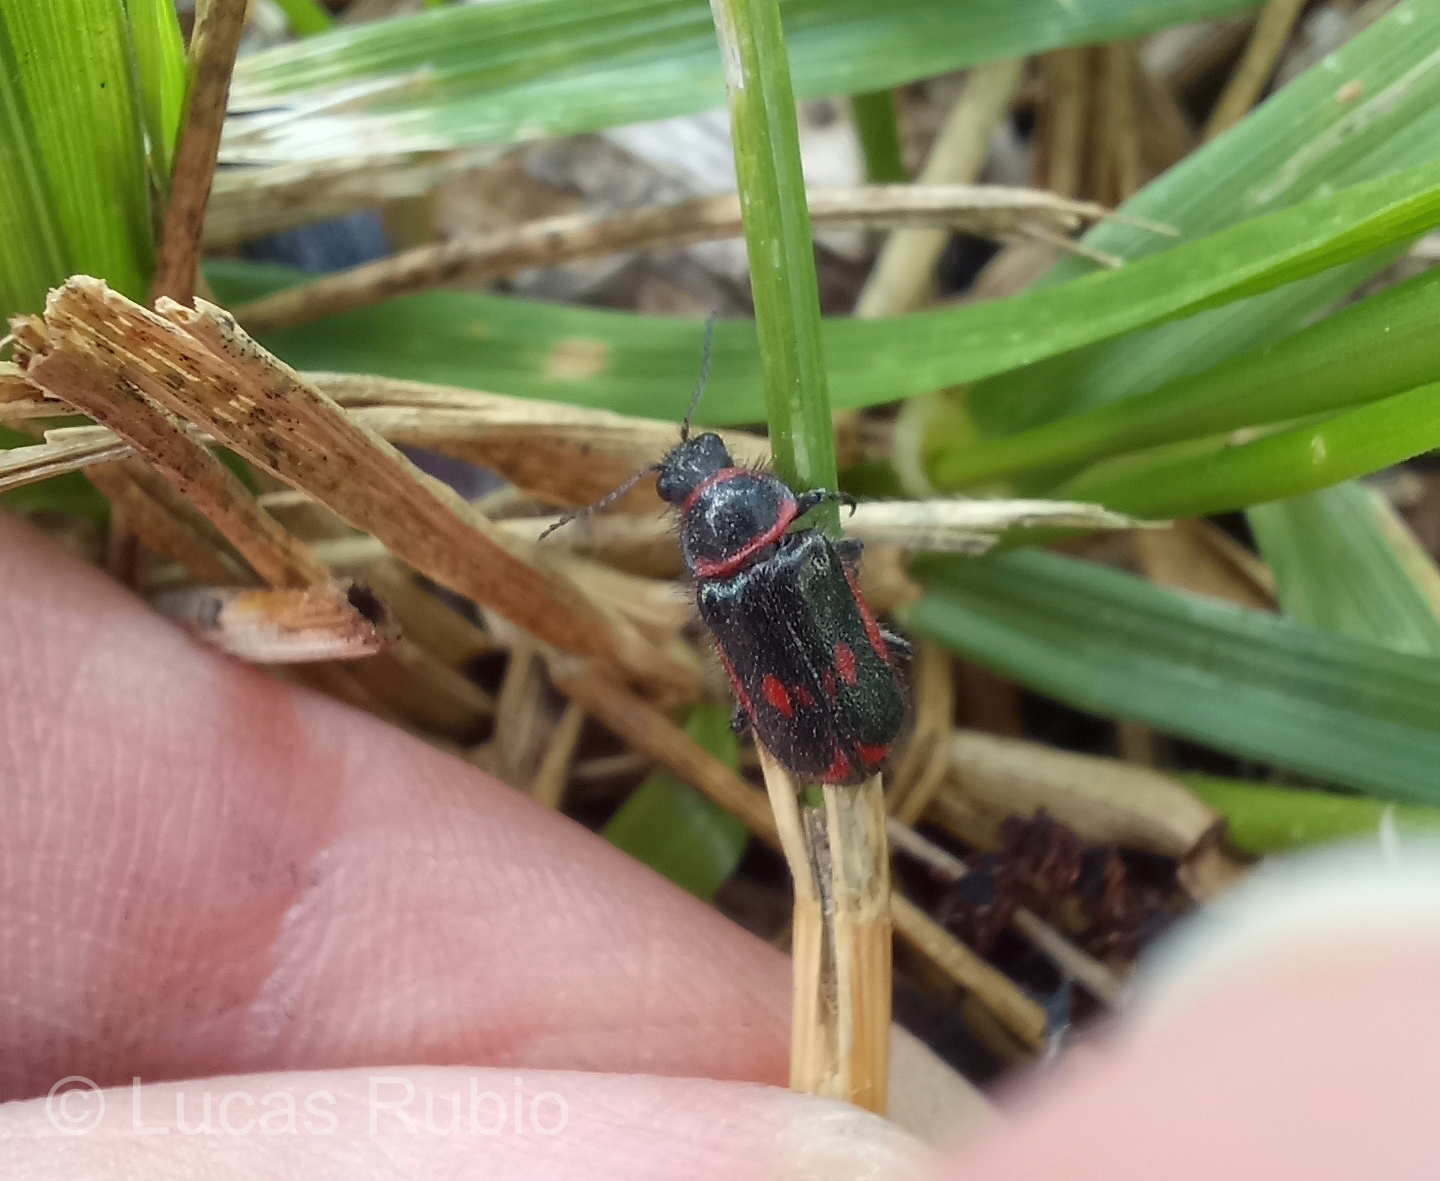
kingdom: Animalia
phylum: Arthropoda
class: Insecta
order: Coleoptera
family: Melyridae
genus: Astylus
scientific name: Astylus
